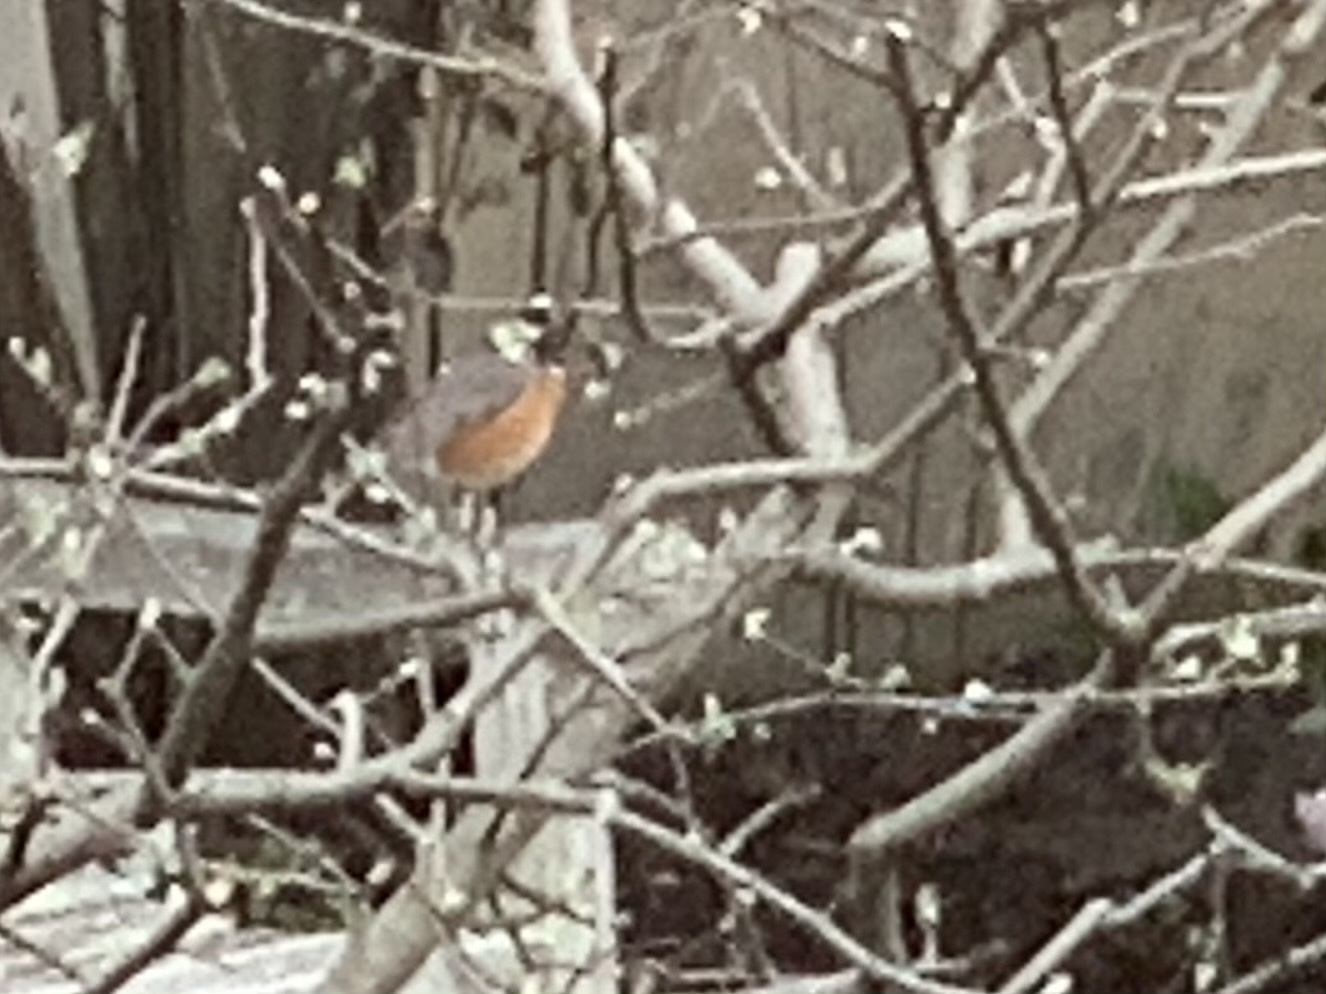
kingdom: Animalia
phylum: Chordata
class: Aves
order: Passeriformes
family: Turdidae
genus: Turdus
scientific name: Turdus migratorius
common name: American robin
